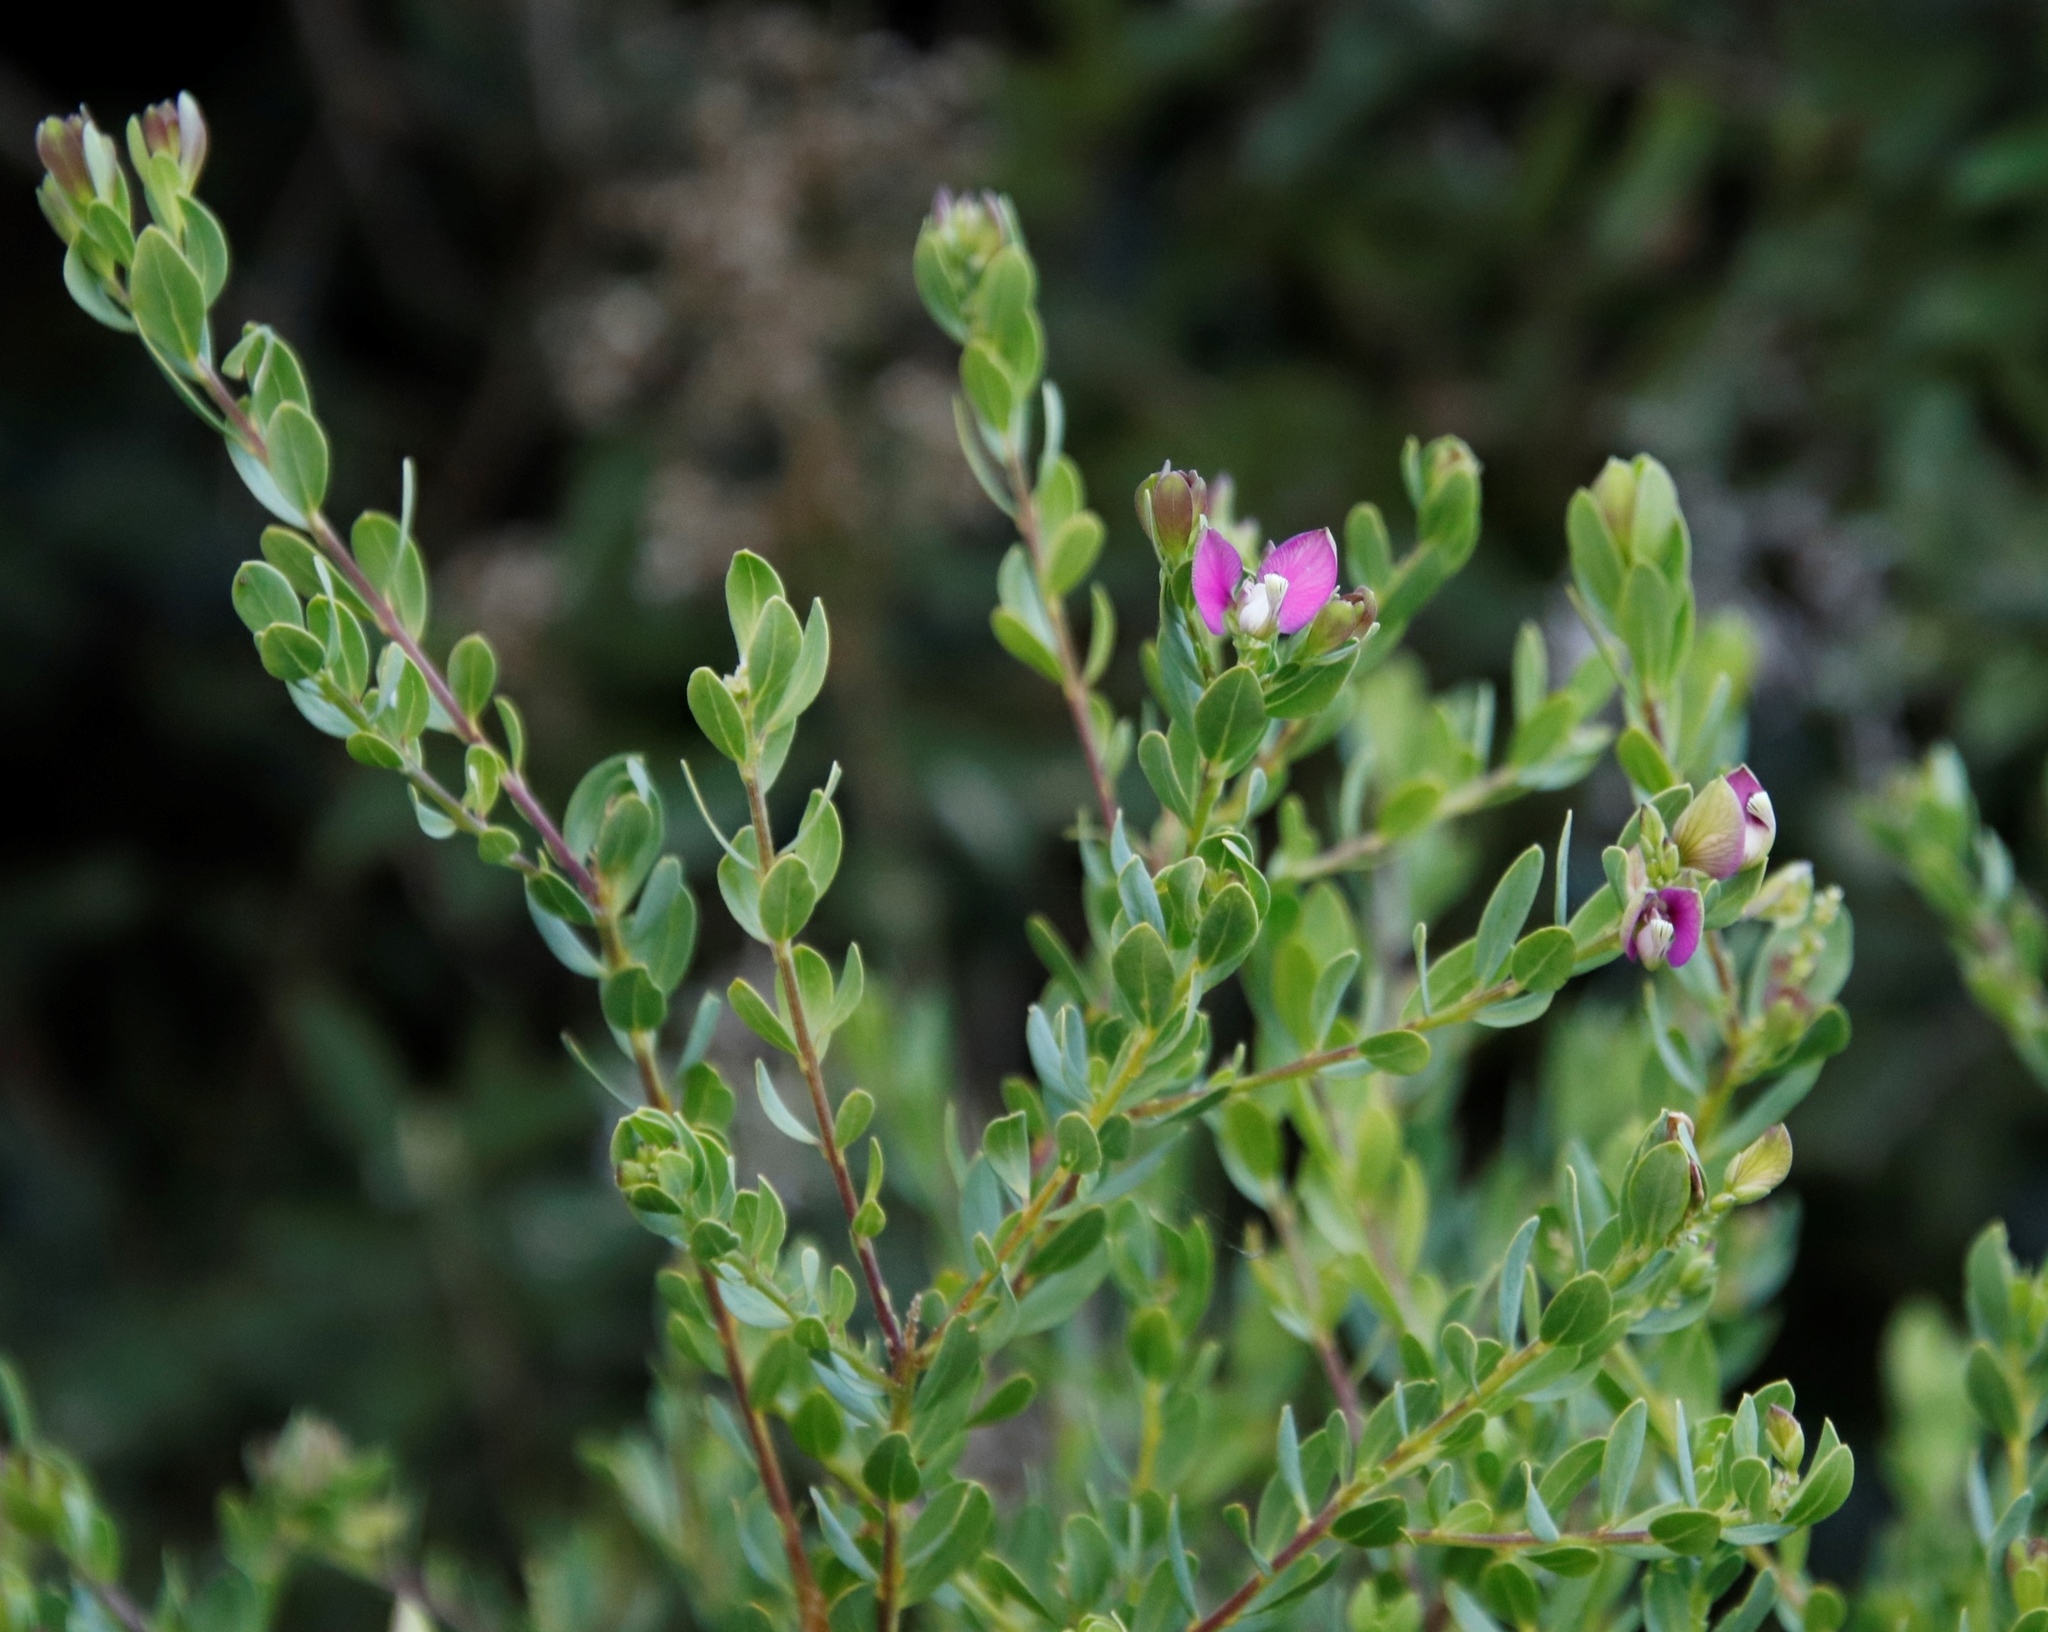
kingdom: Plantae
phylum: Tracheophyta
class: Magnoliopsida
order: Fabales
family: Polygalaceae
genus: Polygala
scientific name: Polygala myrtifolia
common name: Myrtle-leaf milkwort
